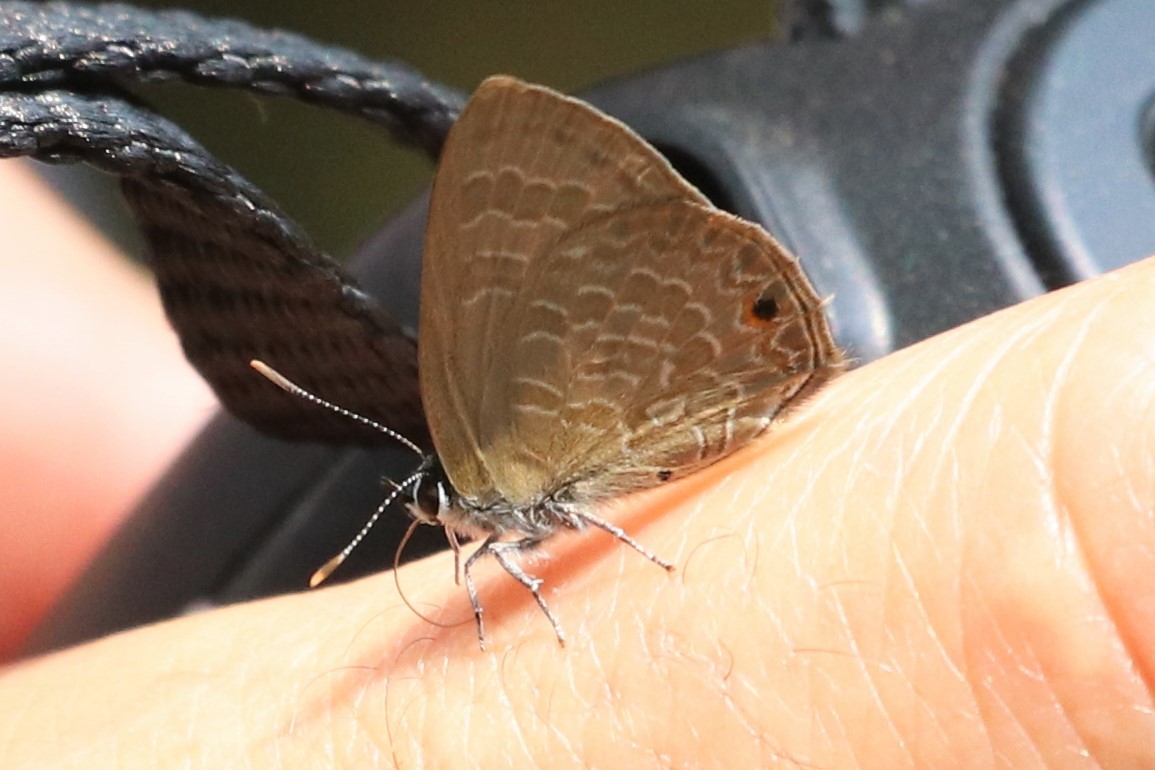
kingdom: Animalia
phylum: Arthropoda
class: Insecta
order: Lepidoptera
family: Lycaenidae
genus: Anthene
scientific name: Anthene emolus
